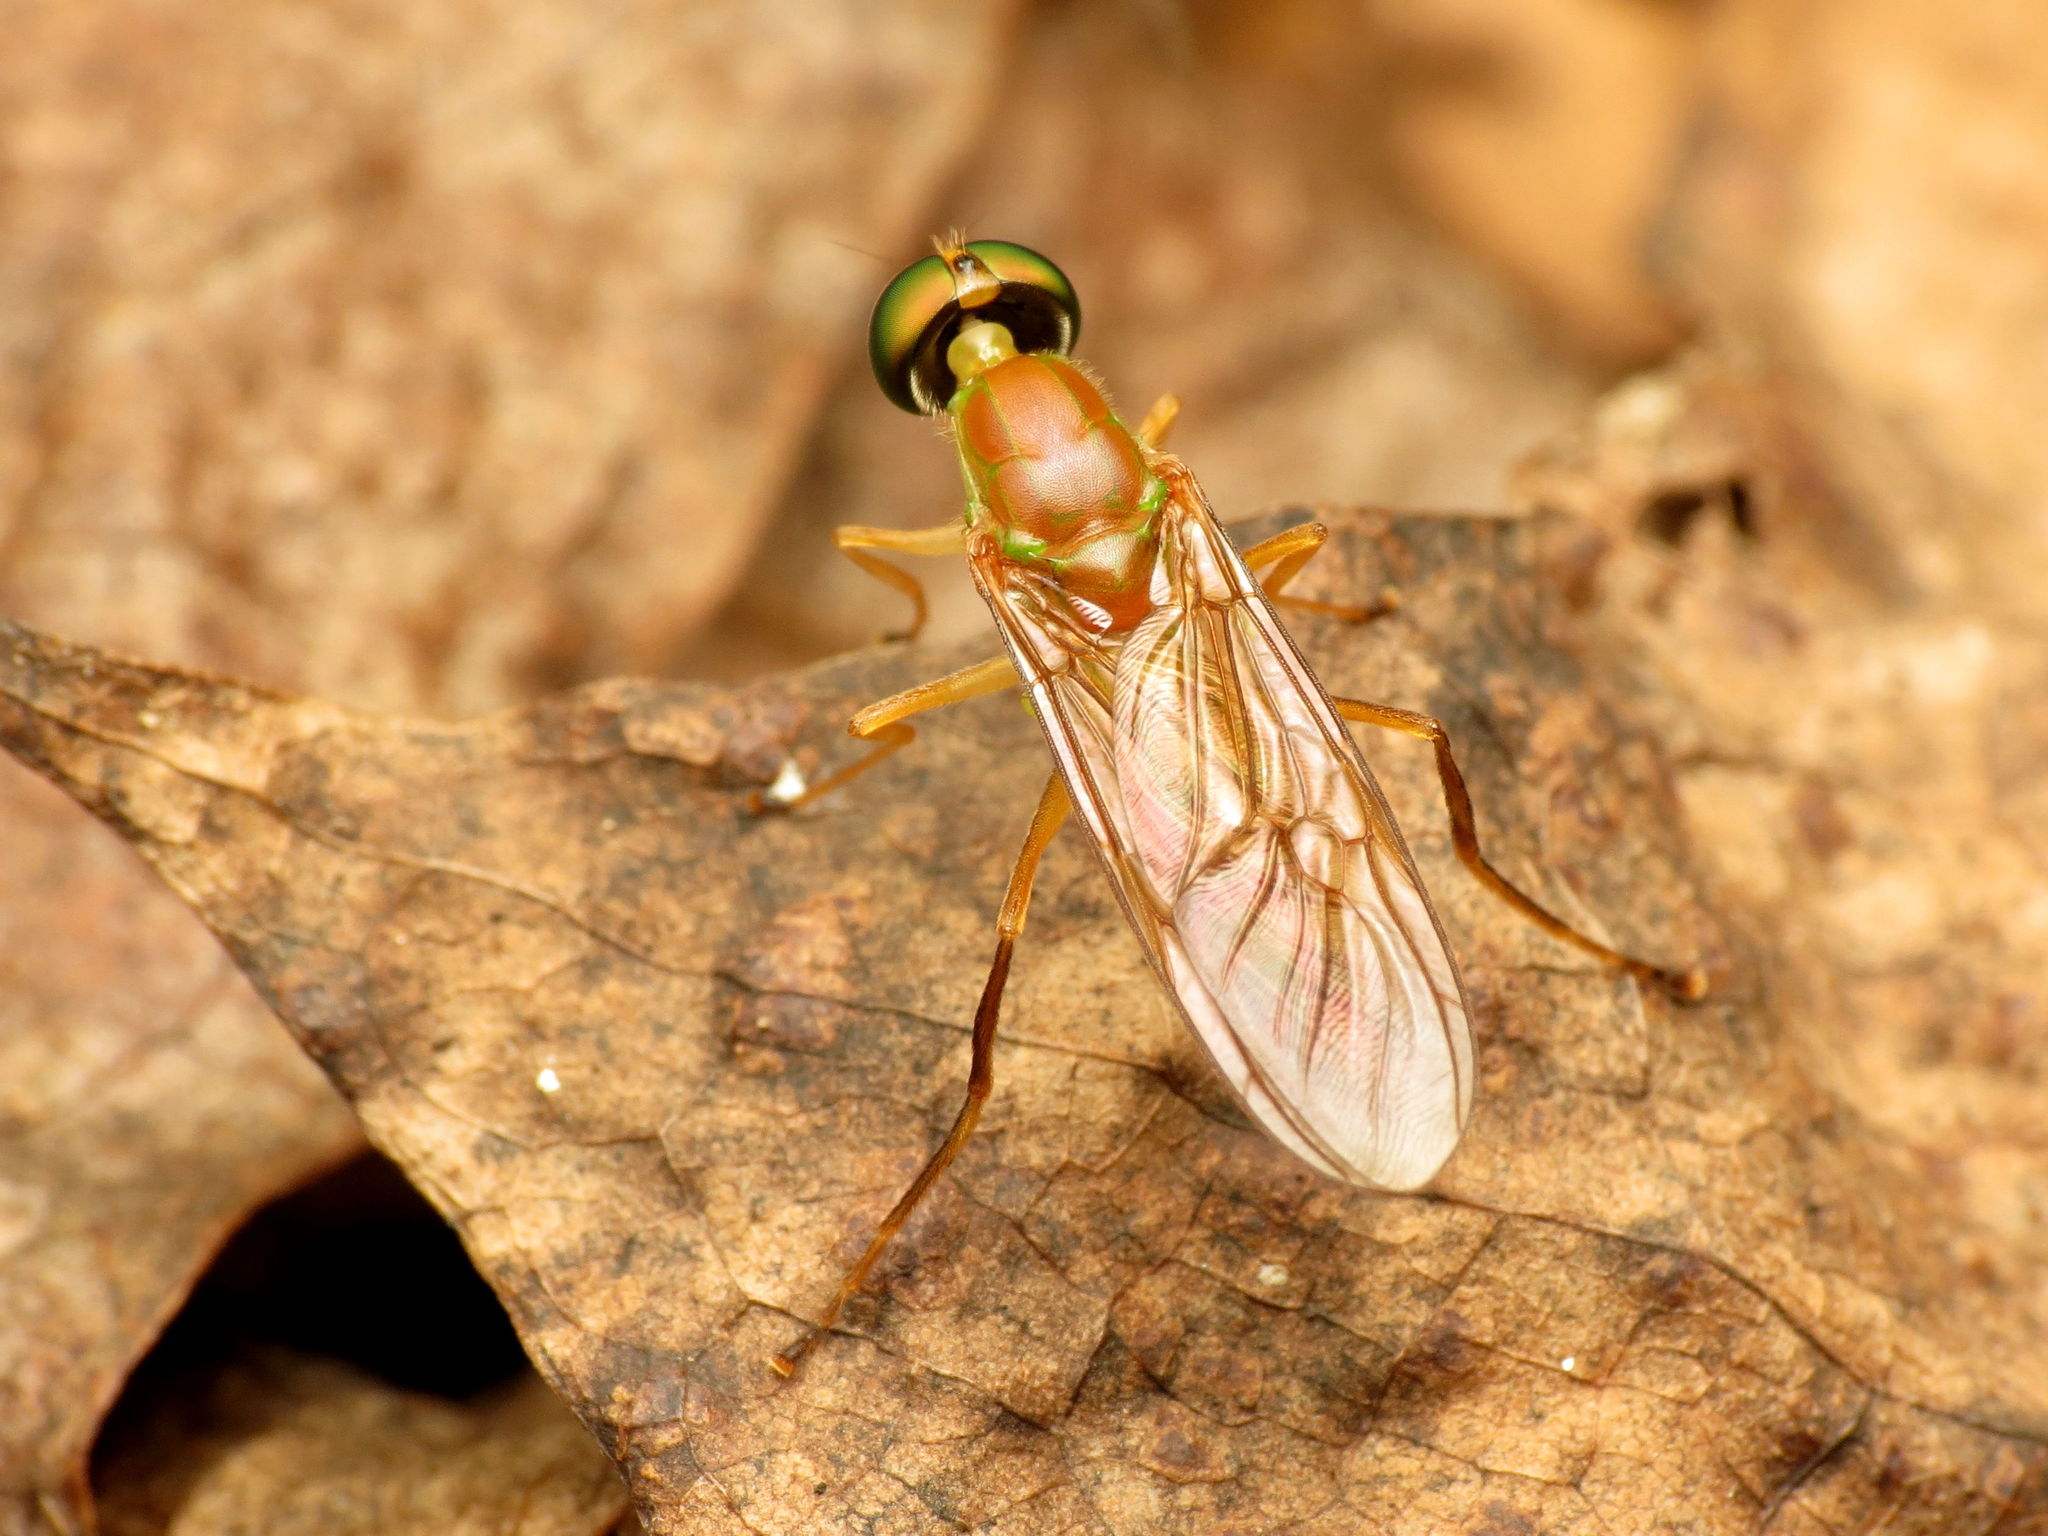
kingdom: Animalia
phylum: Arthropoda
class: Insecta
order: Diptera
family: Stratiomyidae
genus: Ptecticus
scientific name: Ptecticus trivittatus
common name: Compost fly
